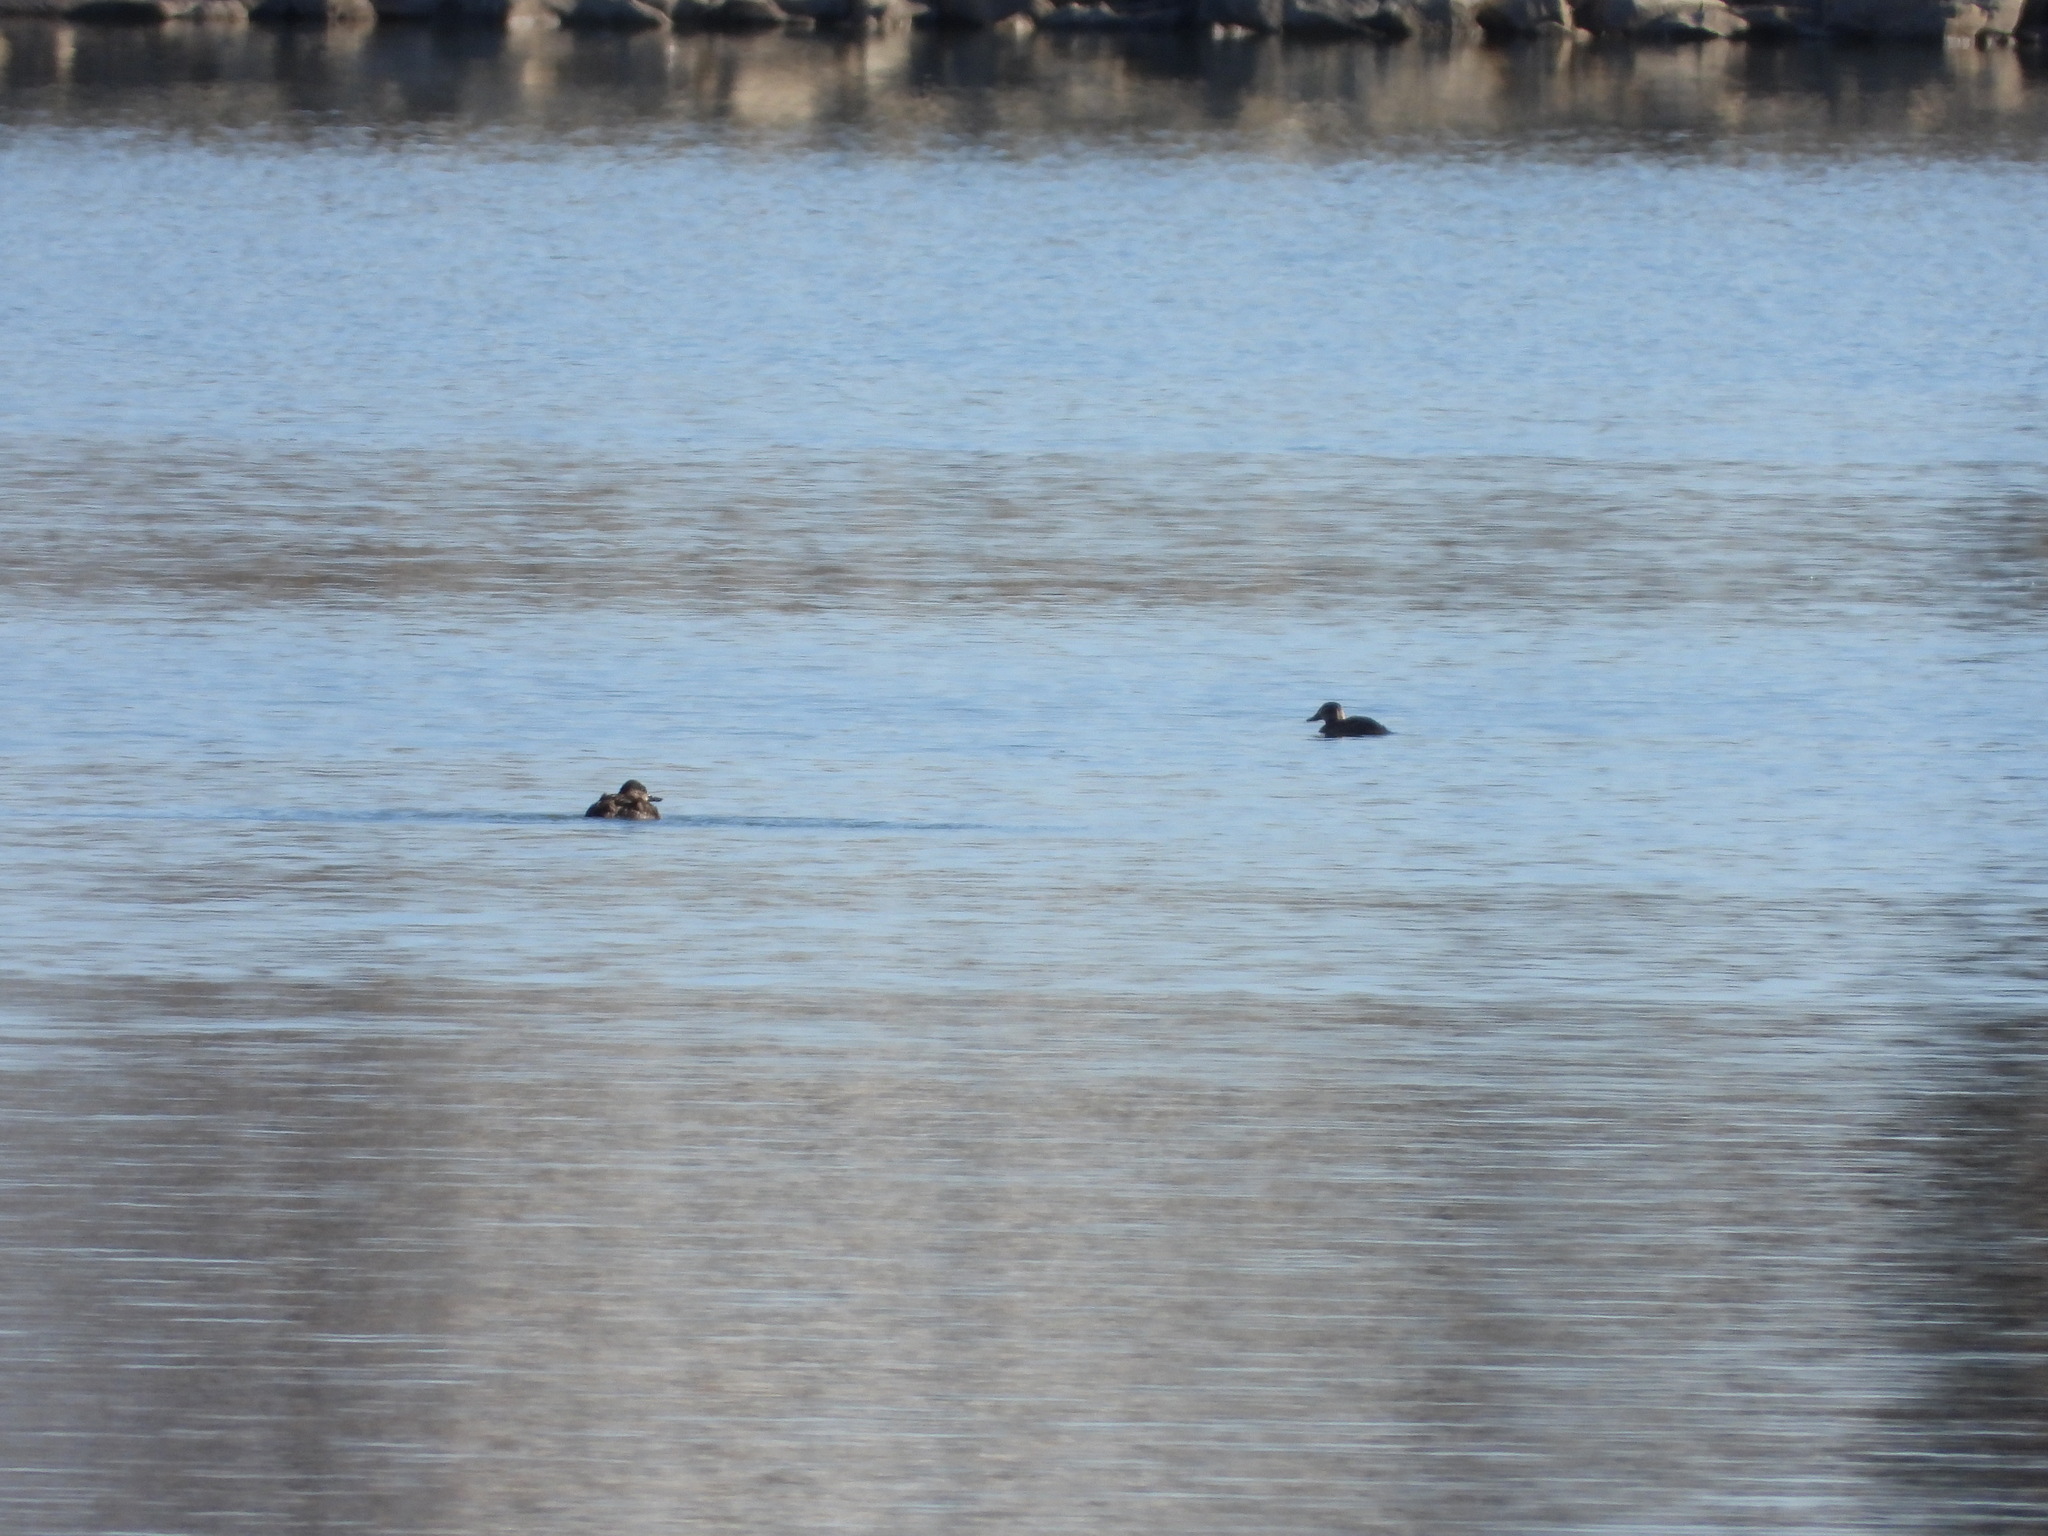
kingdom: Animalia
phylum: Chordata
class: Aves
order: Anseriformes
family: Anatidae
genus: Oxyura
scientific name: Oxyura jamaicensis
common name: Ruddy duck
